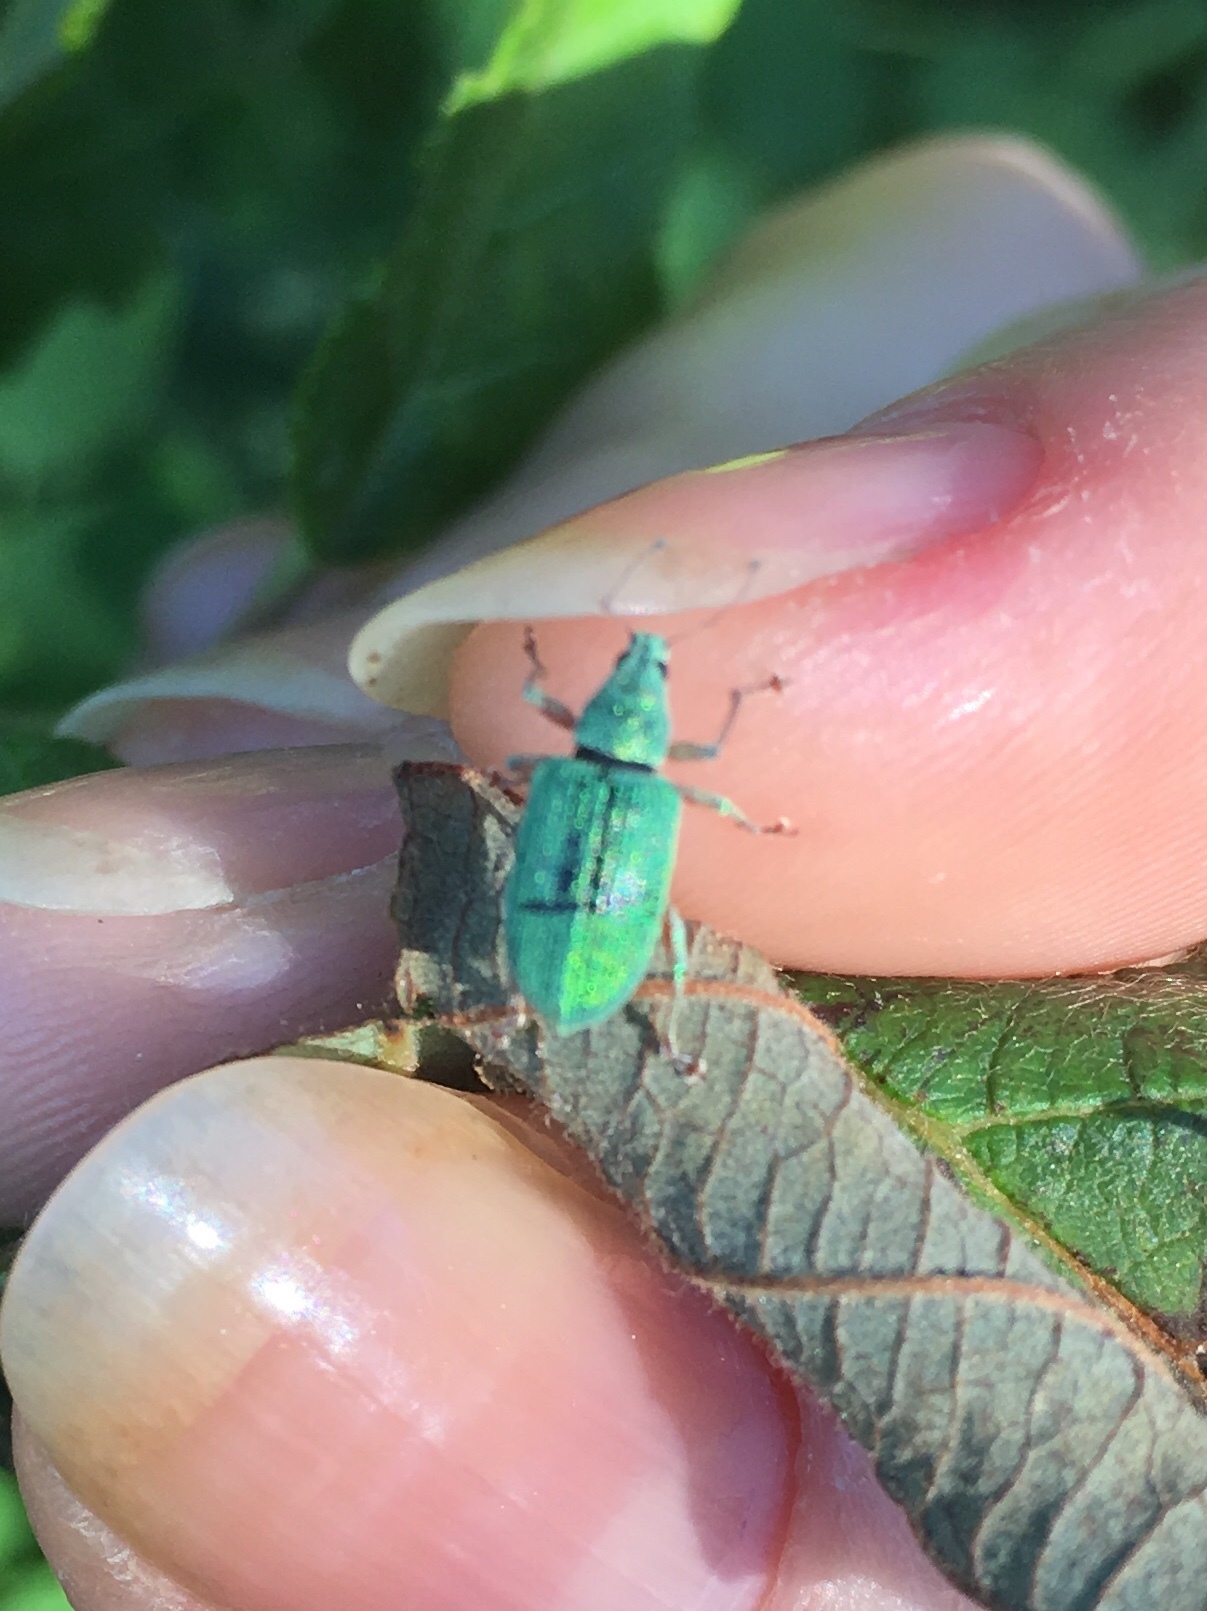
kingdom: Animalia
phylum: Arthropoda
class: Insecta
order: Coleoptera
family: Curculionidae
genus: Polydrusus
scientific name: Polydrusus formosus
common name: Weevil
